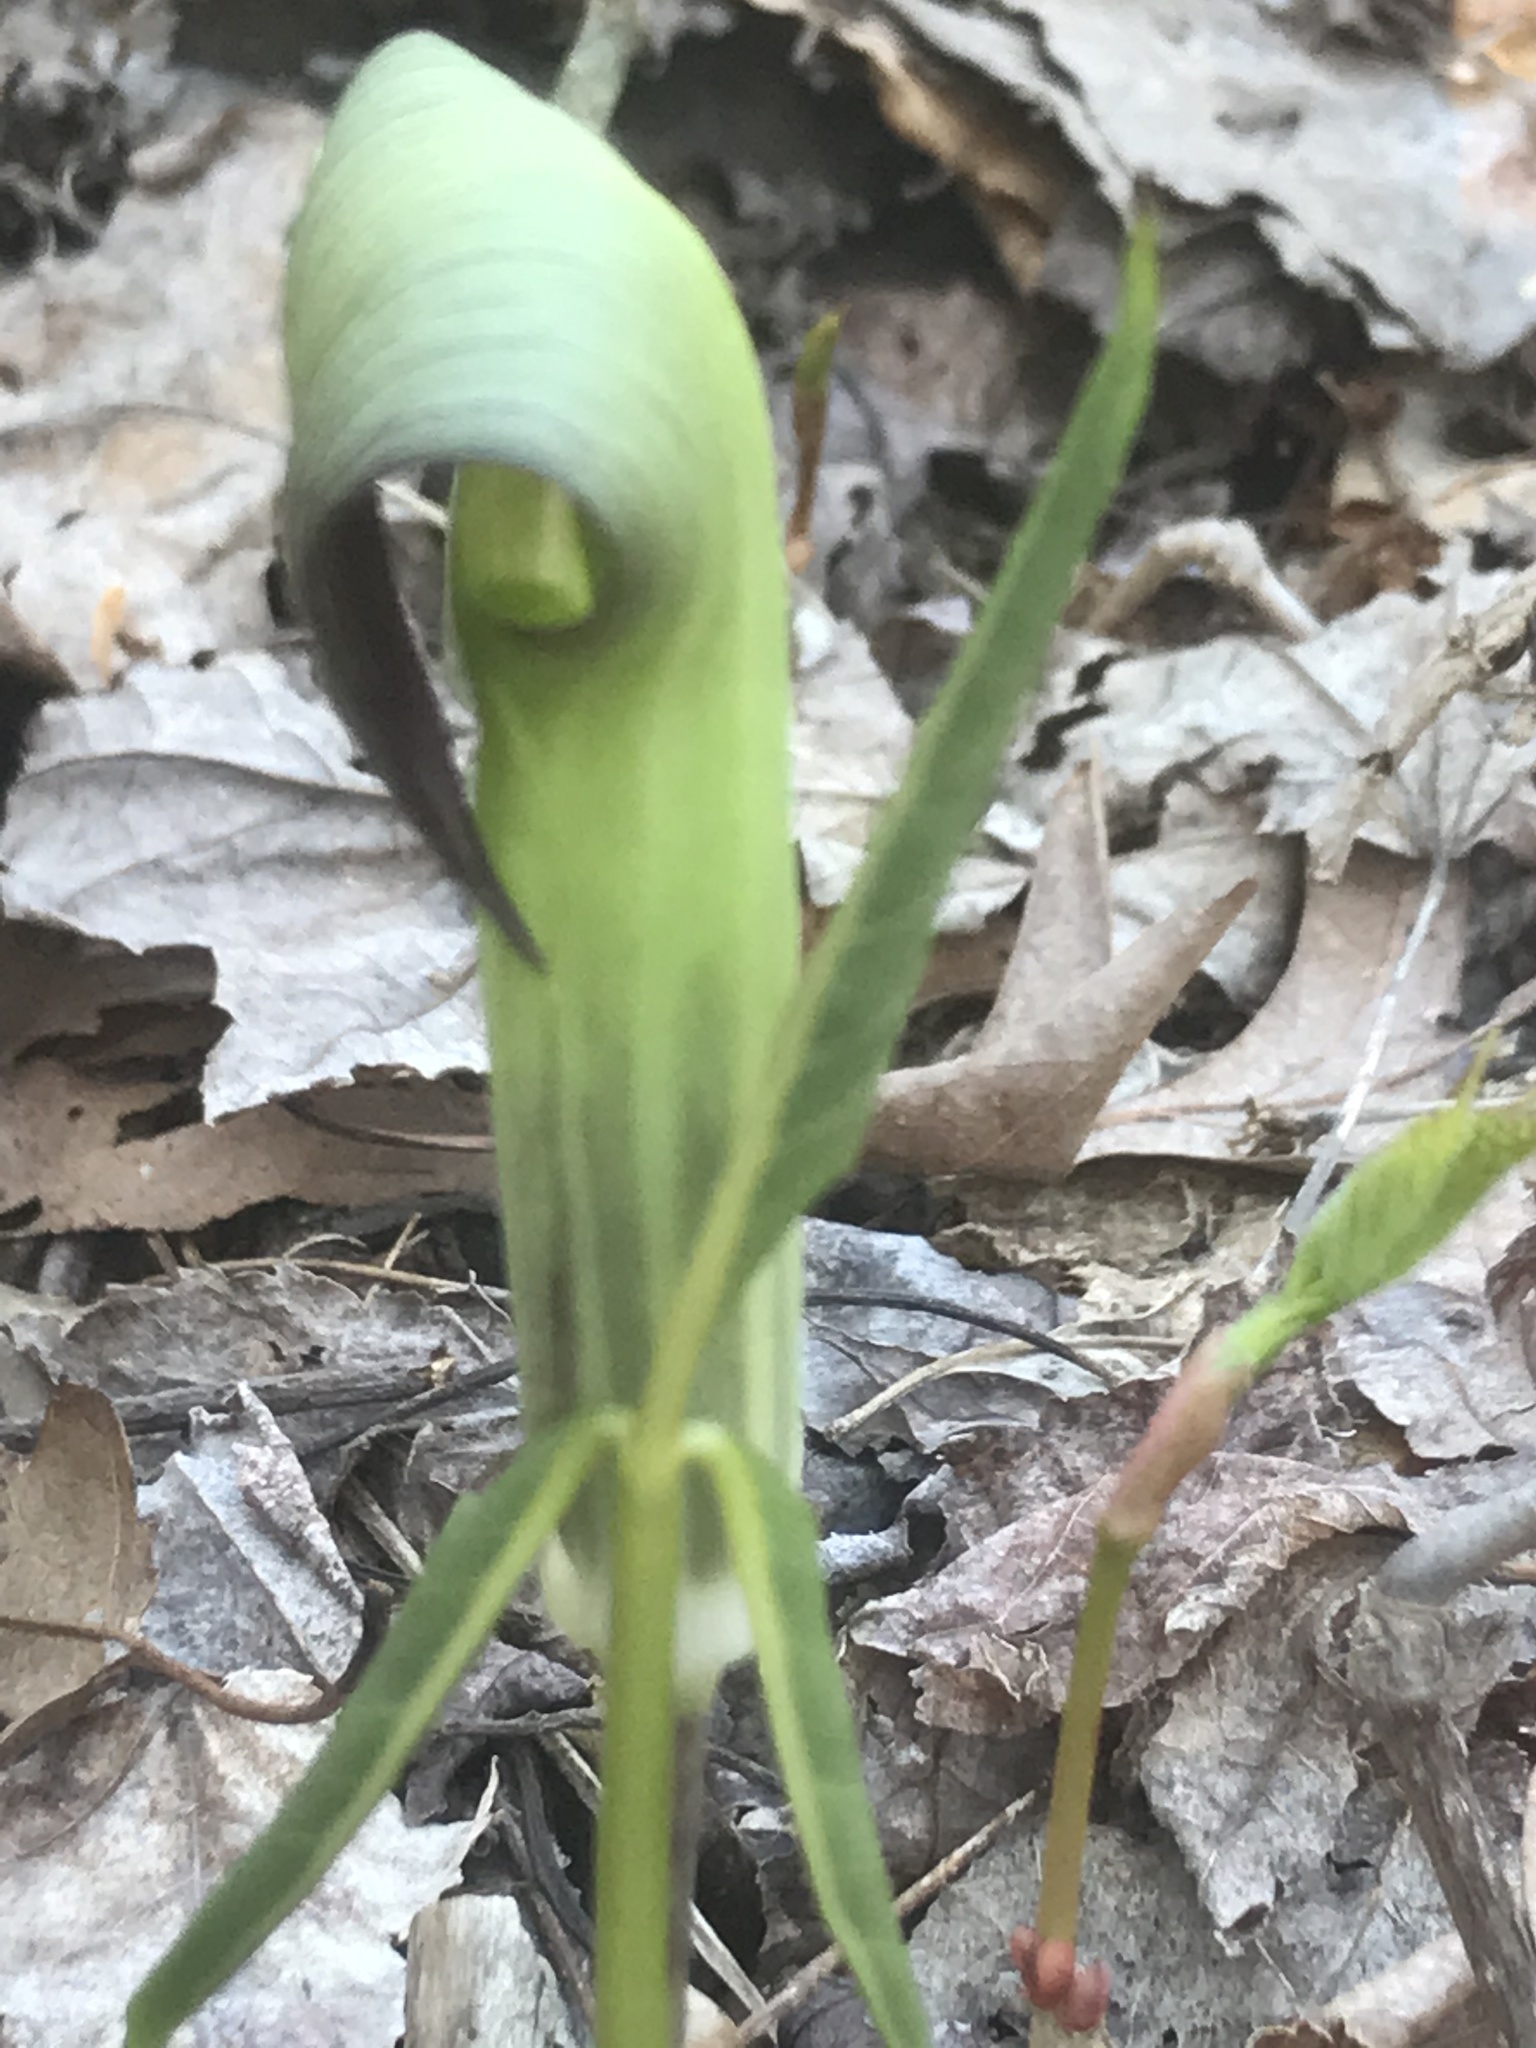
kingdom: Plantae
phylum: Tracheophyta
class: Liliopsida
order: Alismatales
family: Araceae
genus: Arisaema
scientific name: Arisaema triphyllum
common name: Jack-in-the-pulpit
